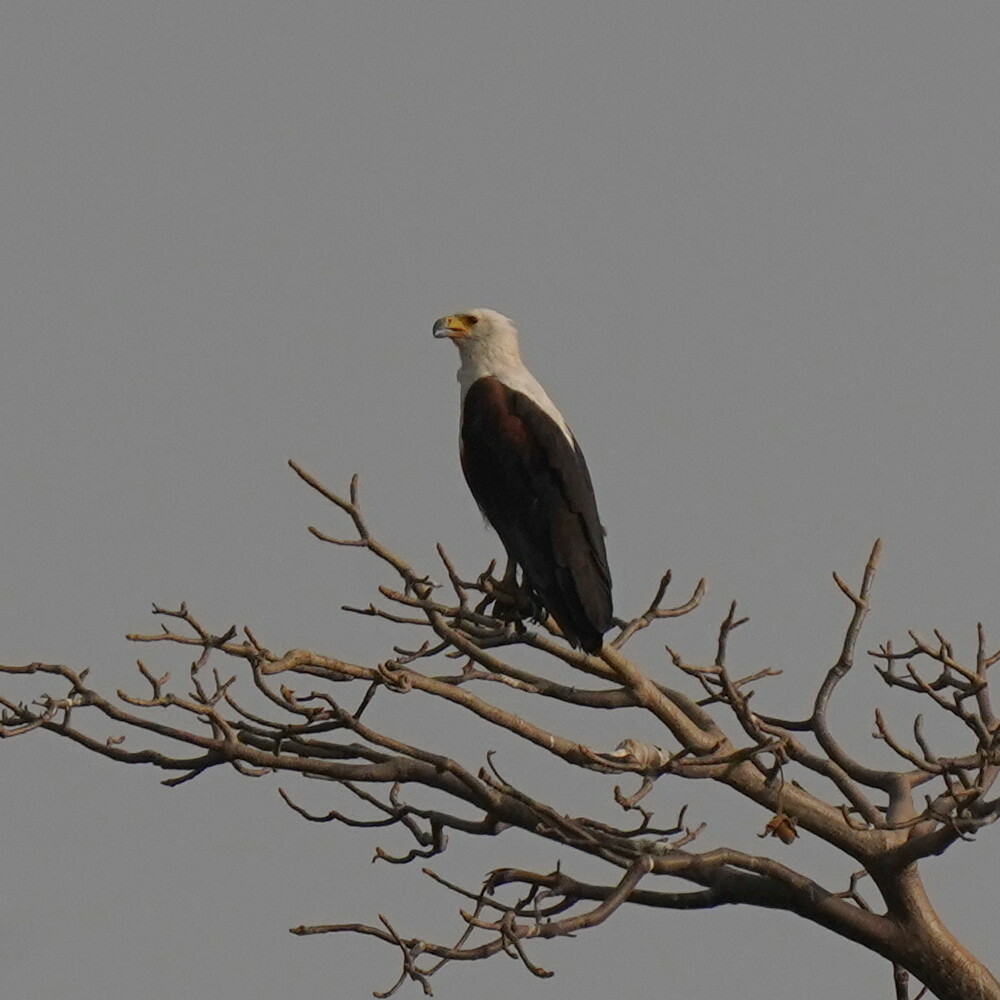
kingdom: Animalia
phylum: Chordata
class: Aves
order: Accipitriformes
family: Accipitridae
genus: Haliaeetus
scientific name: Haliaeetus vocifer
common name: African fish eagle
